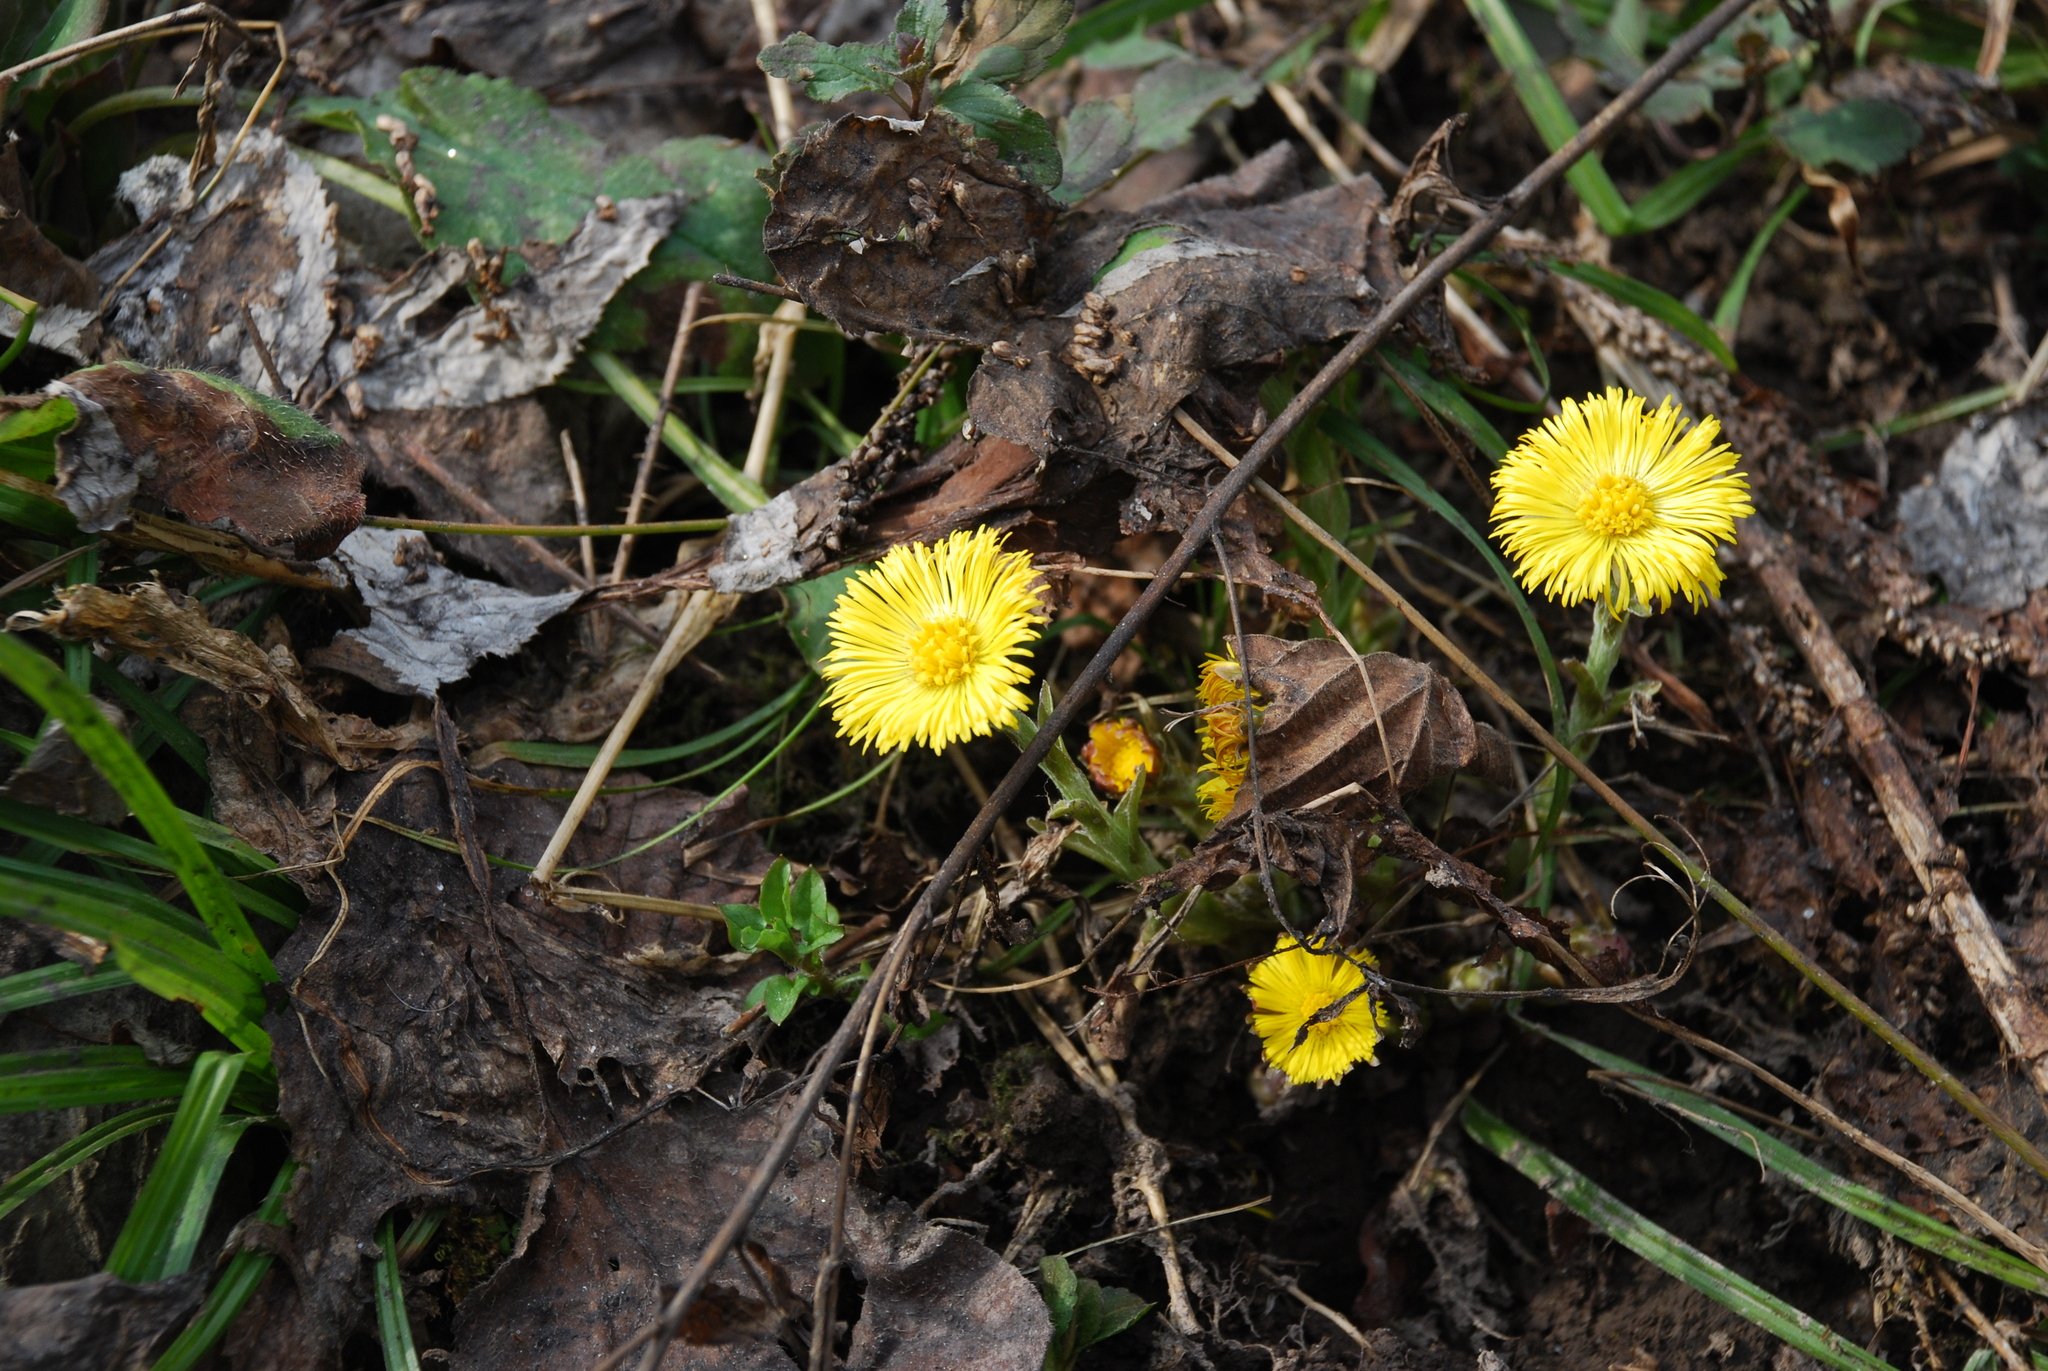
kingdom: Plantae
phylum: Tracheophyta
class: Magnoliopsida
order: Asterales
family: Asteraceae
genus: Tussilago
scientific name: Tussilago farfara
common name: Coltsfoot
